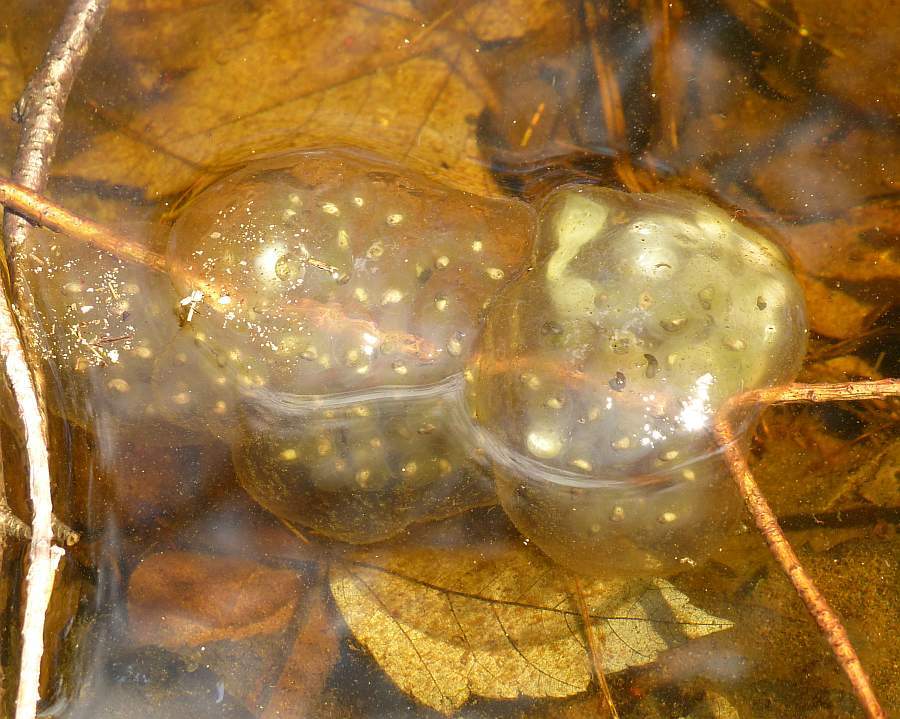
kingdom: Animalia
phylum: Chordata
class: Amphibia
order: Caudata
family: Ambystomatidae
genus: Ambystoma
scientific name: Ambystoma maculatum
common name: Spotted salamander
